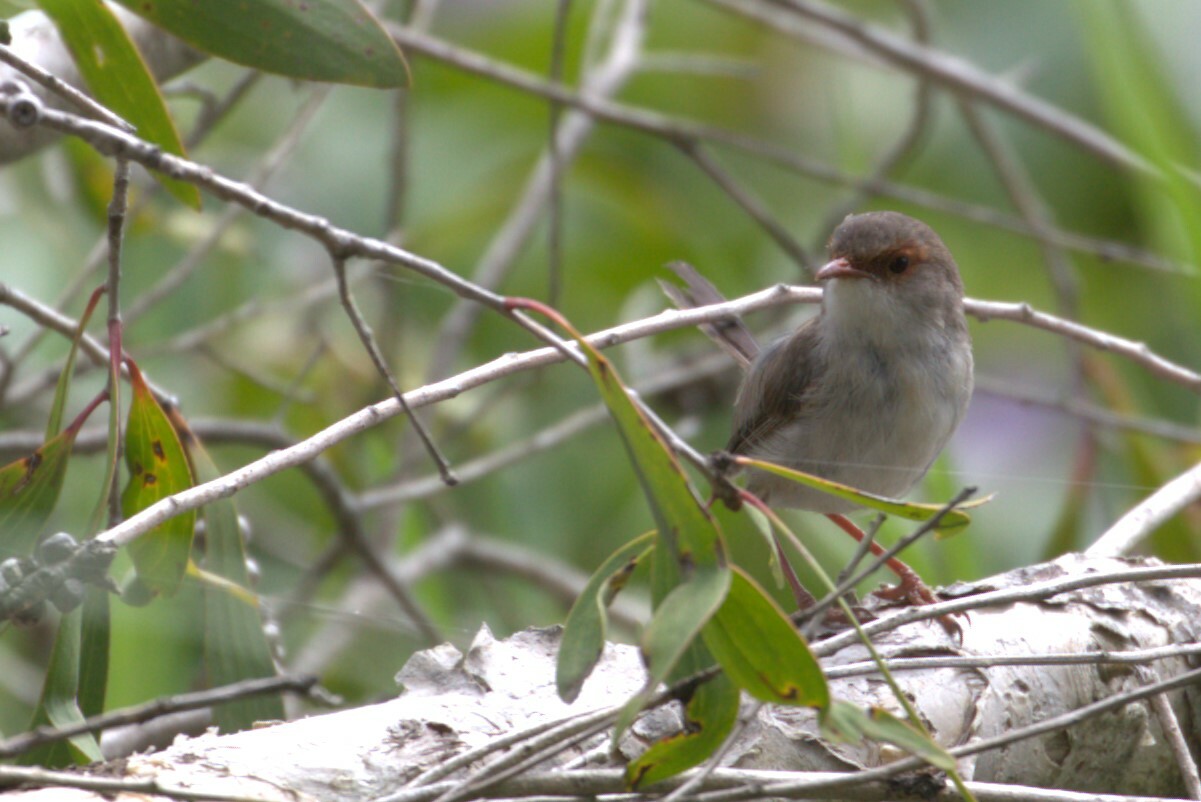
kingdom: Animalia
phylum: Chordata
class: Aves
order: Passeriformes
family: Maluridae
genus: Malurus
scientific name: Malurus cyaneus
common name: Superb fairywren
